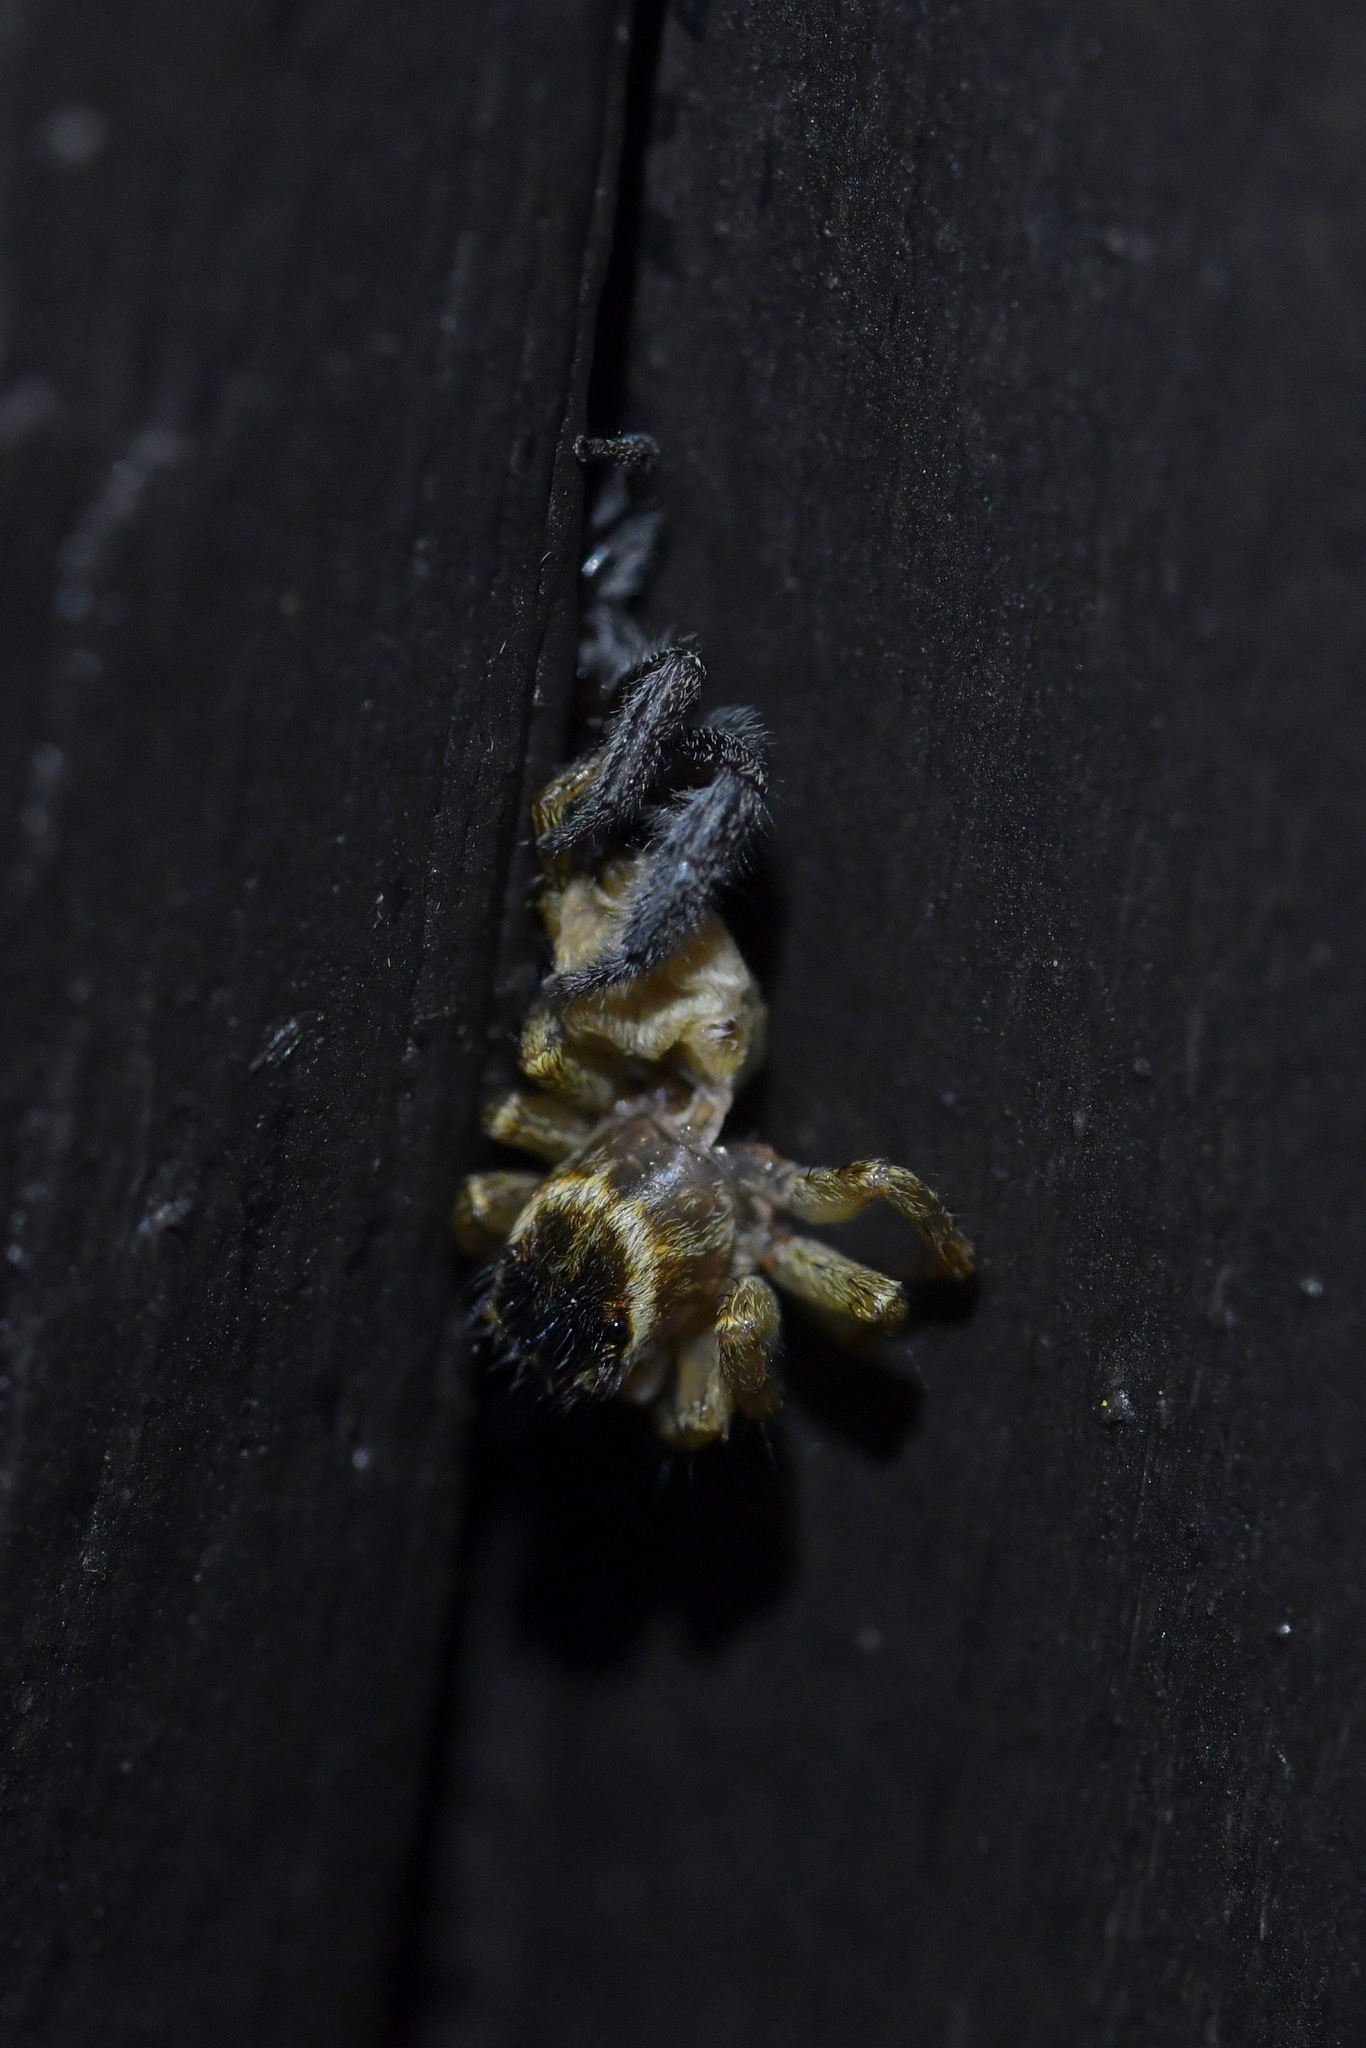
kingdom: Animalia
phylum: Arthropoda
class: Arachnida
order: Araneae
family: Salticidae
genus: Maratus
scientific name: Maratus griseus
